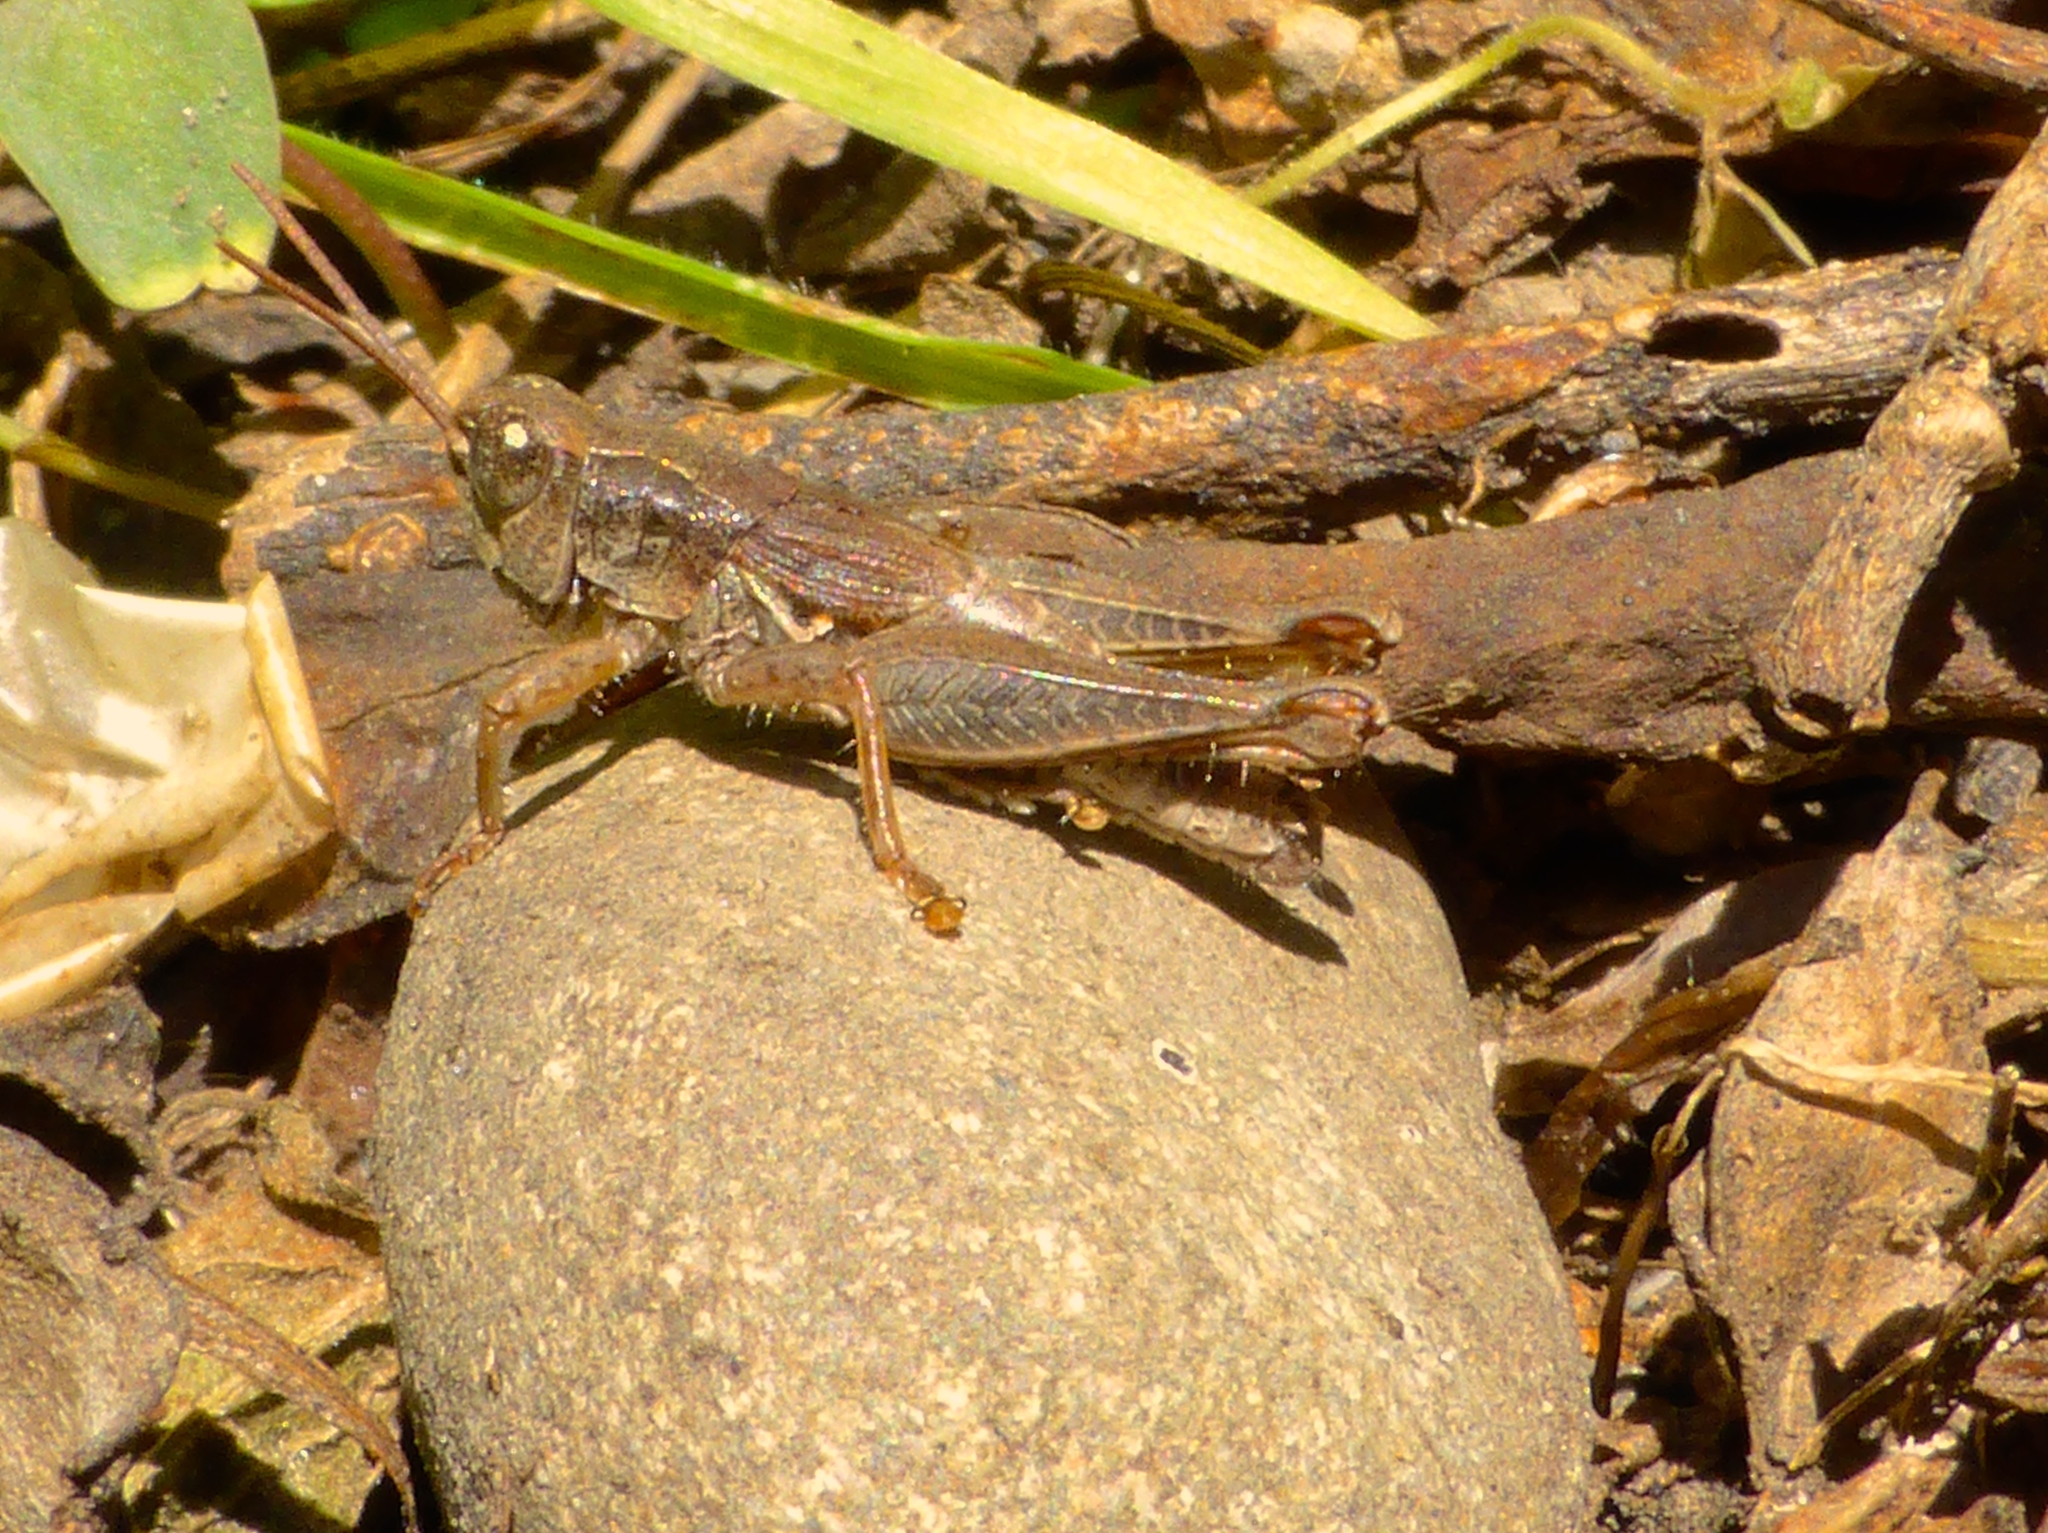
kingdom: Animalia
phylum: Arthropoda
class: Insecta
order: Orthoptera
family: Acrididae
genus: Phaulacridium
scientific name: Phaulacridium marginale
